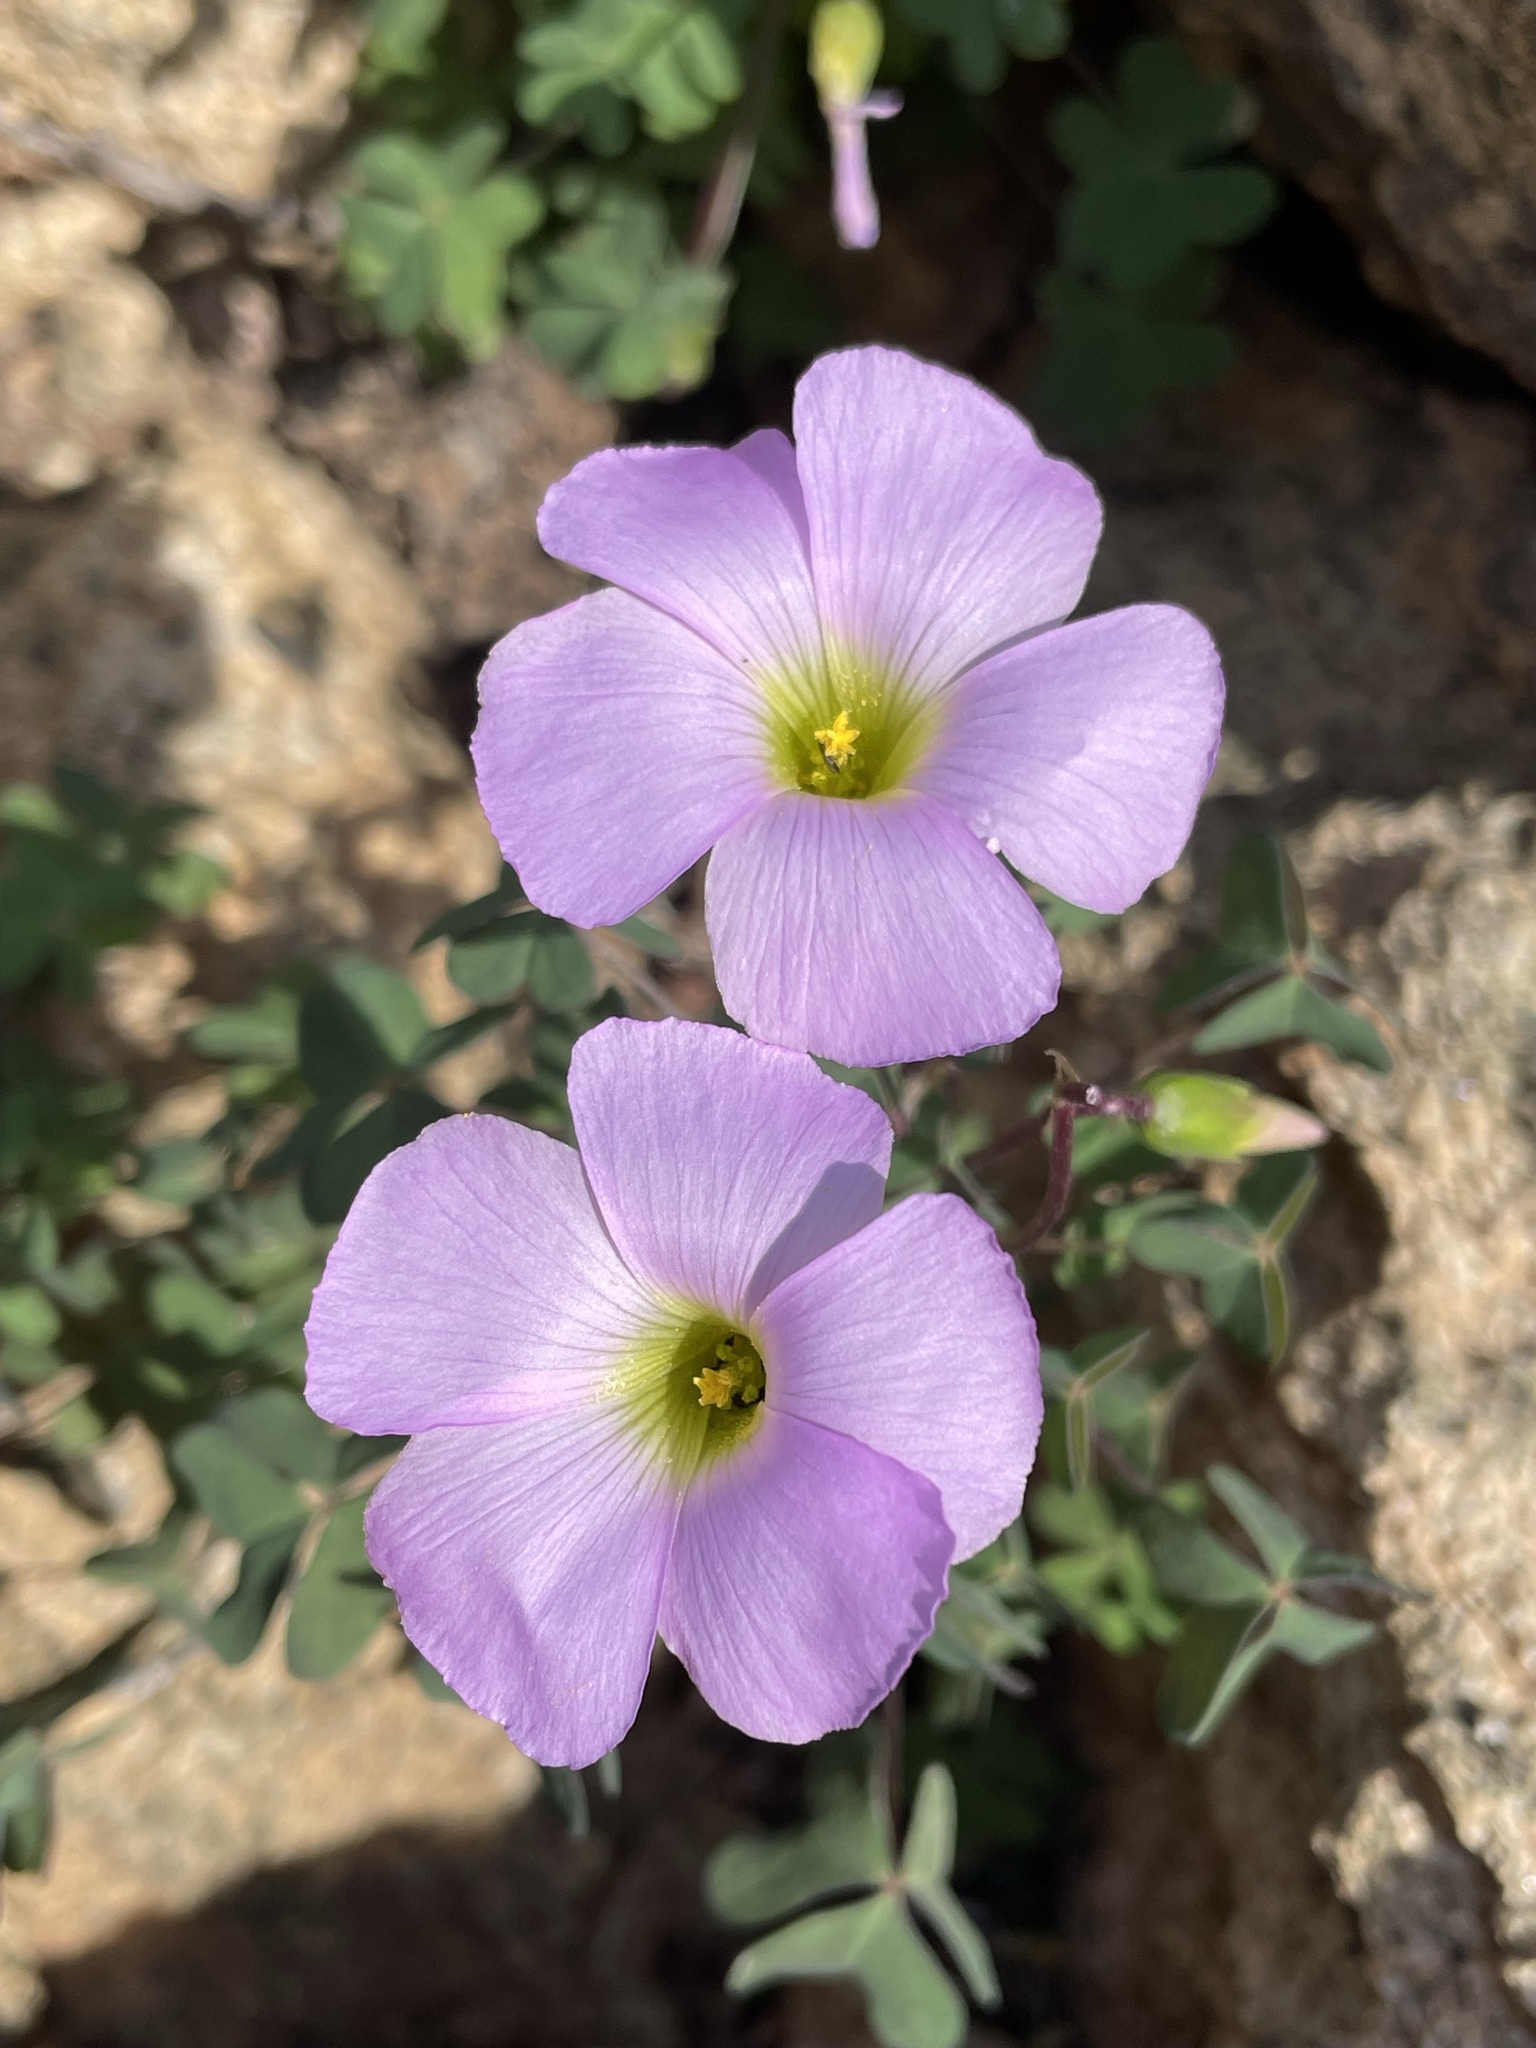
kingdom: Plantae
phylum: Tracheophyta
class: Magnoliopsida
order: Oxalidales
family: Oxalidaceae
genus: Oxalis
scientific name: Oxalis comosa
